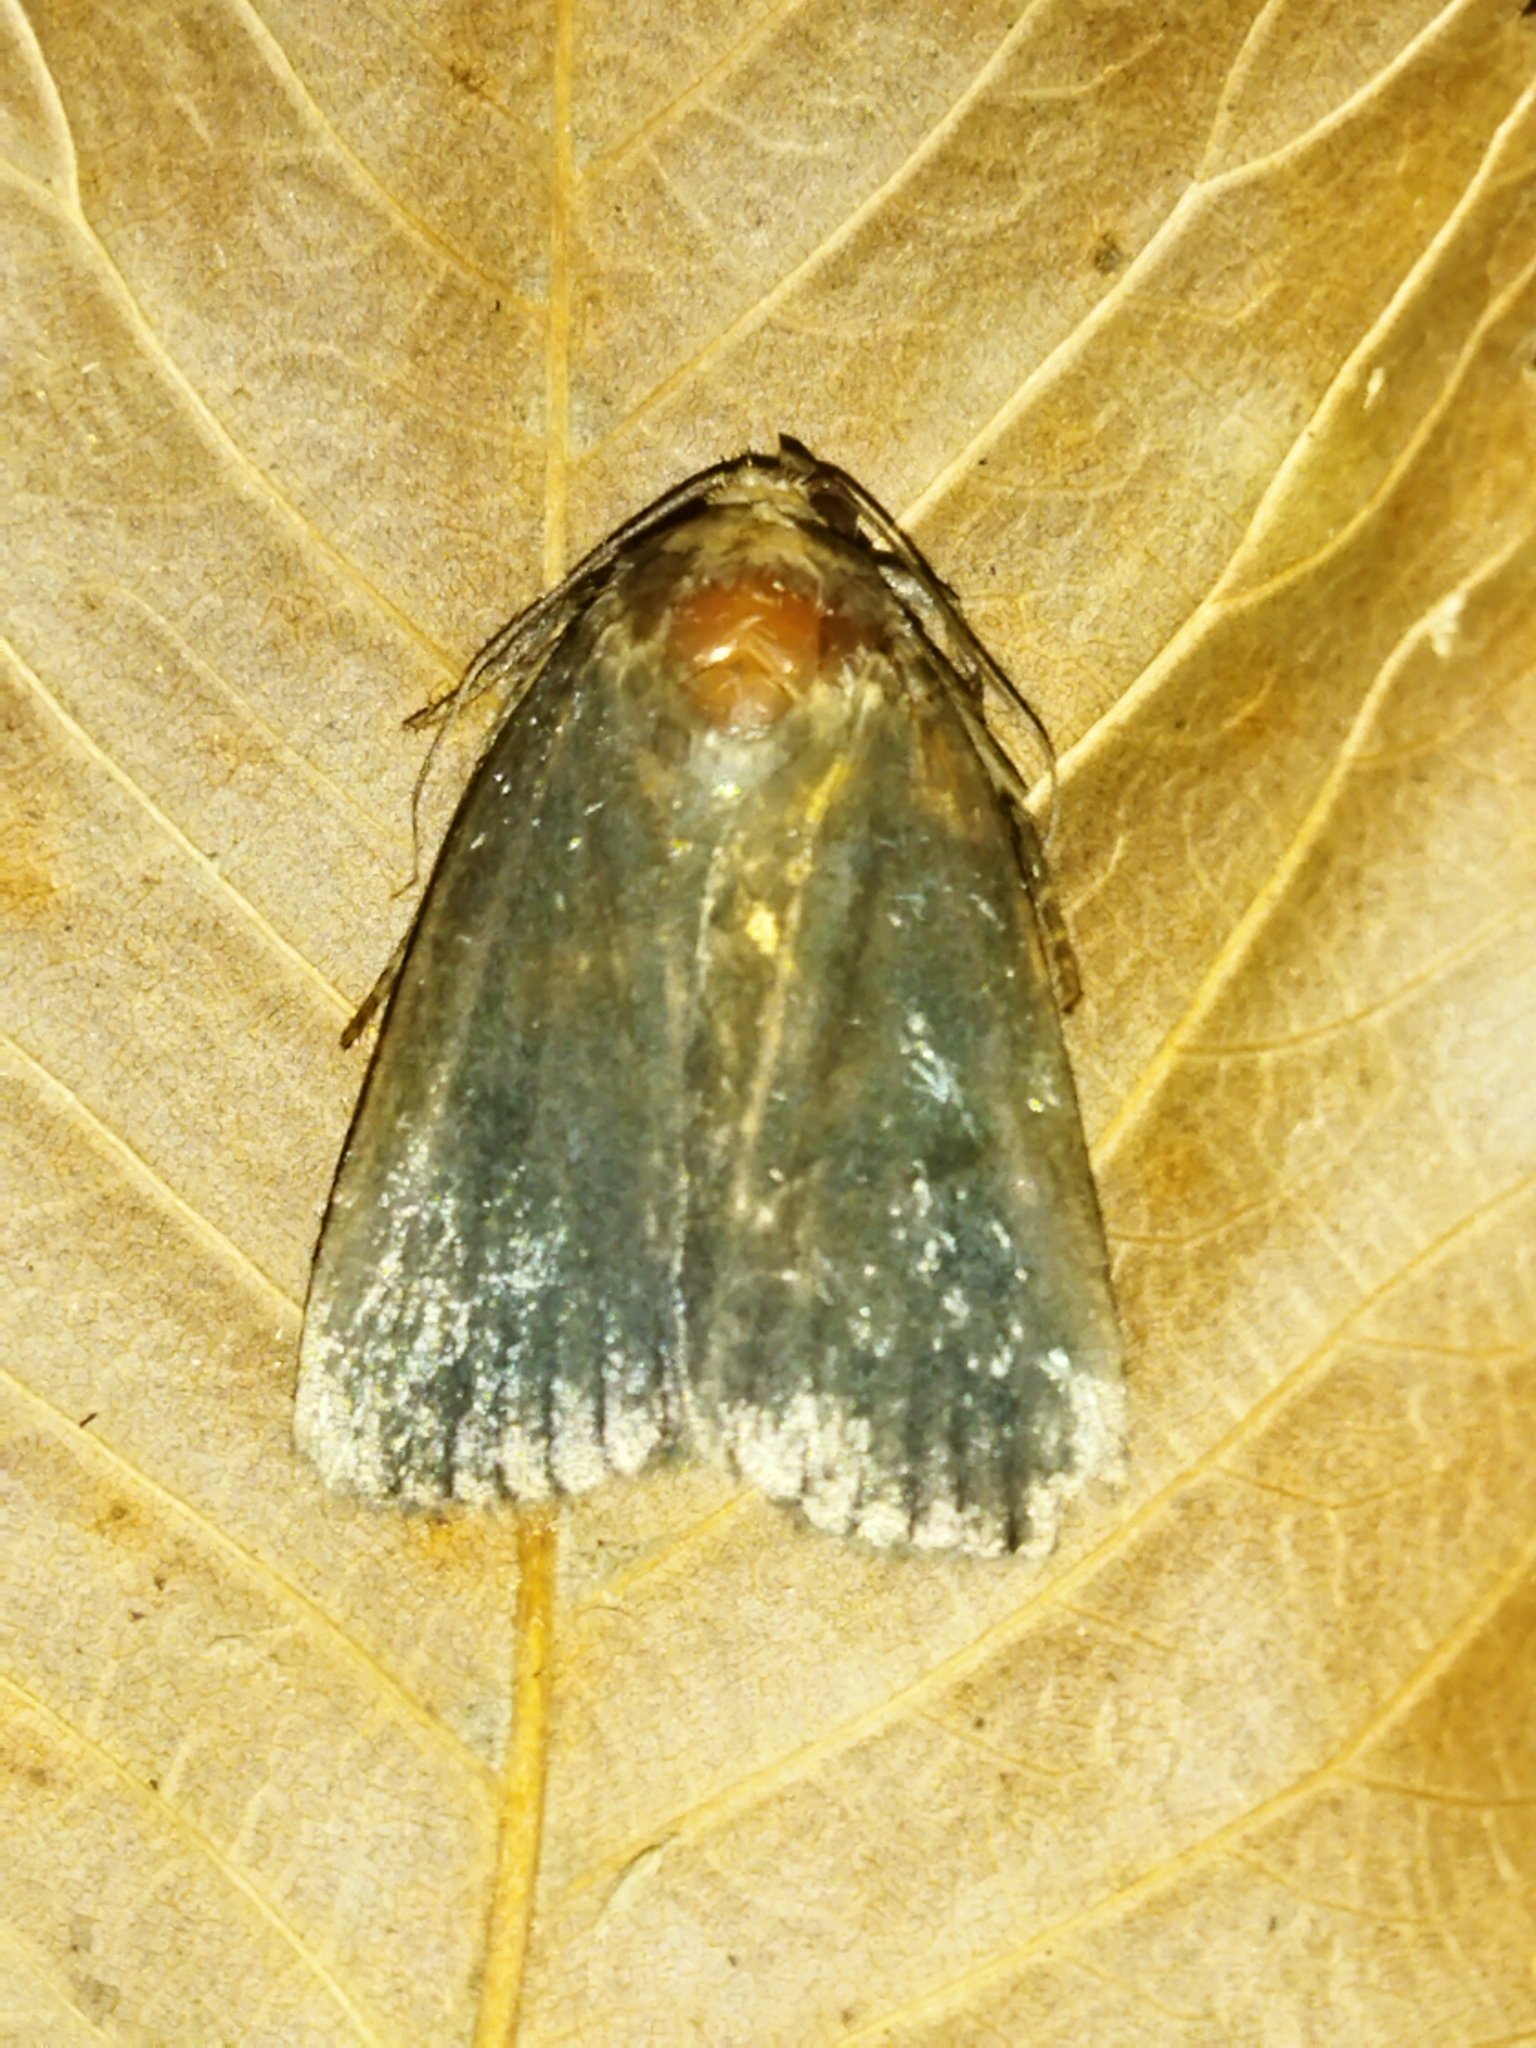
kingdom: Animalia
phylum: Arthropoda
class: Insecta
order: Lepidoptera
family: Noctuidae
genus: Amphipyra
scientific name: Amphipyra livida
